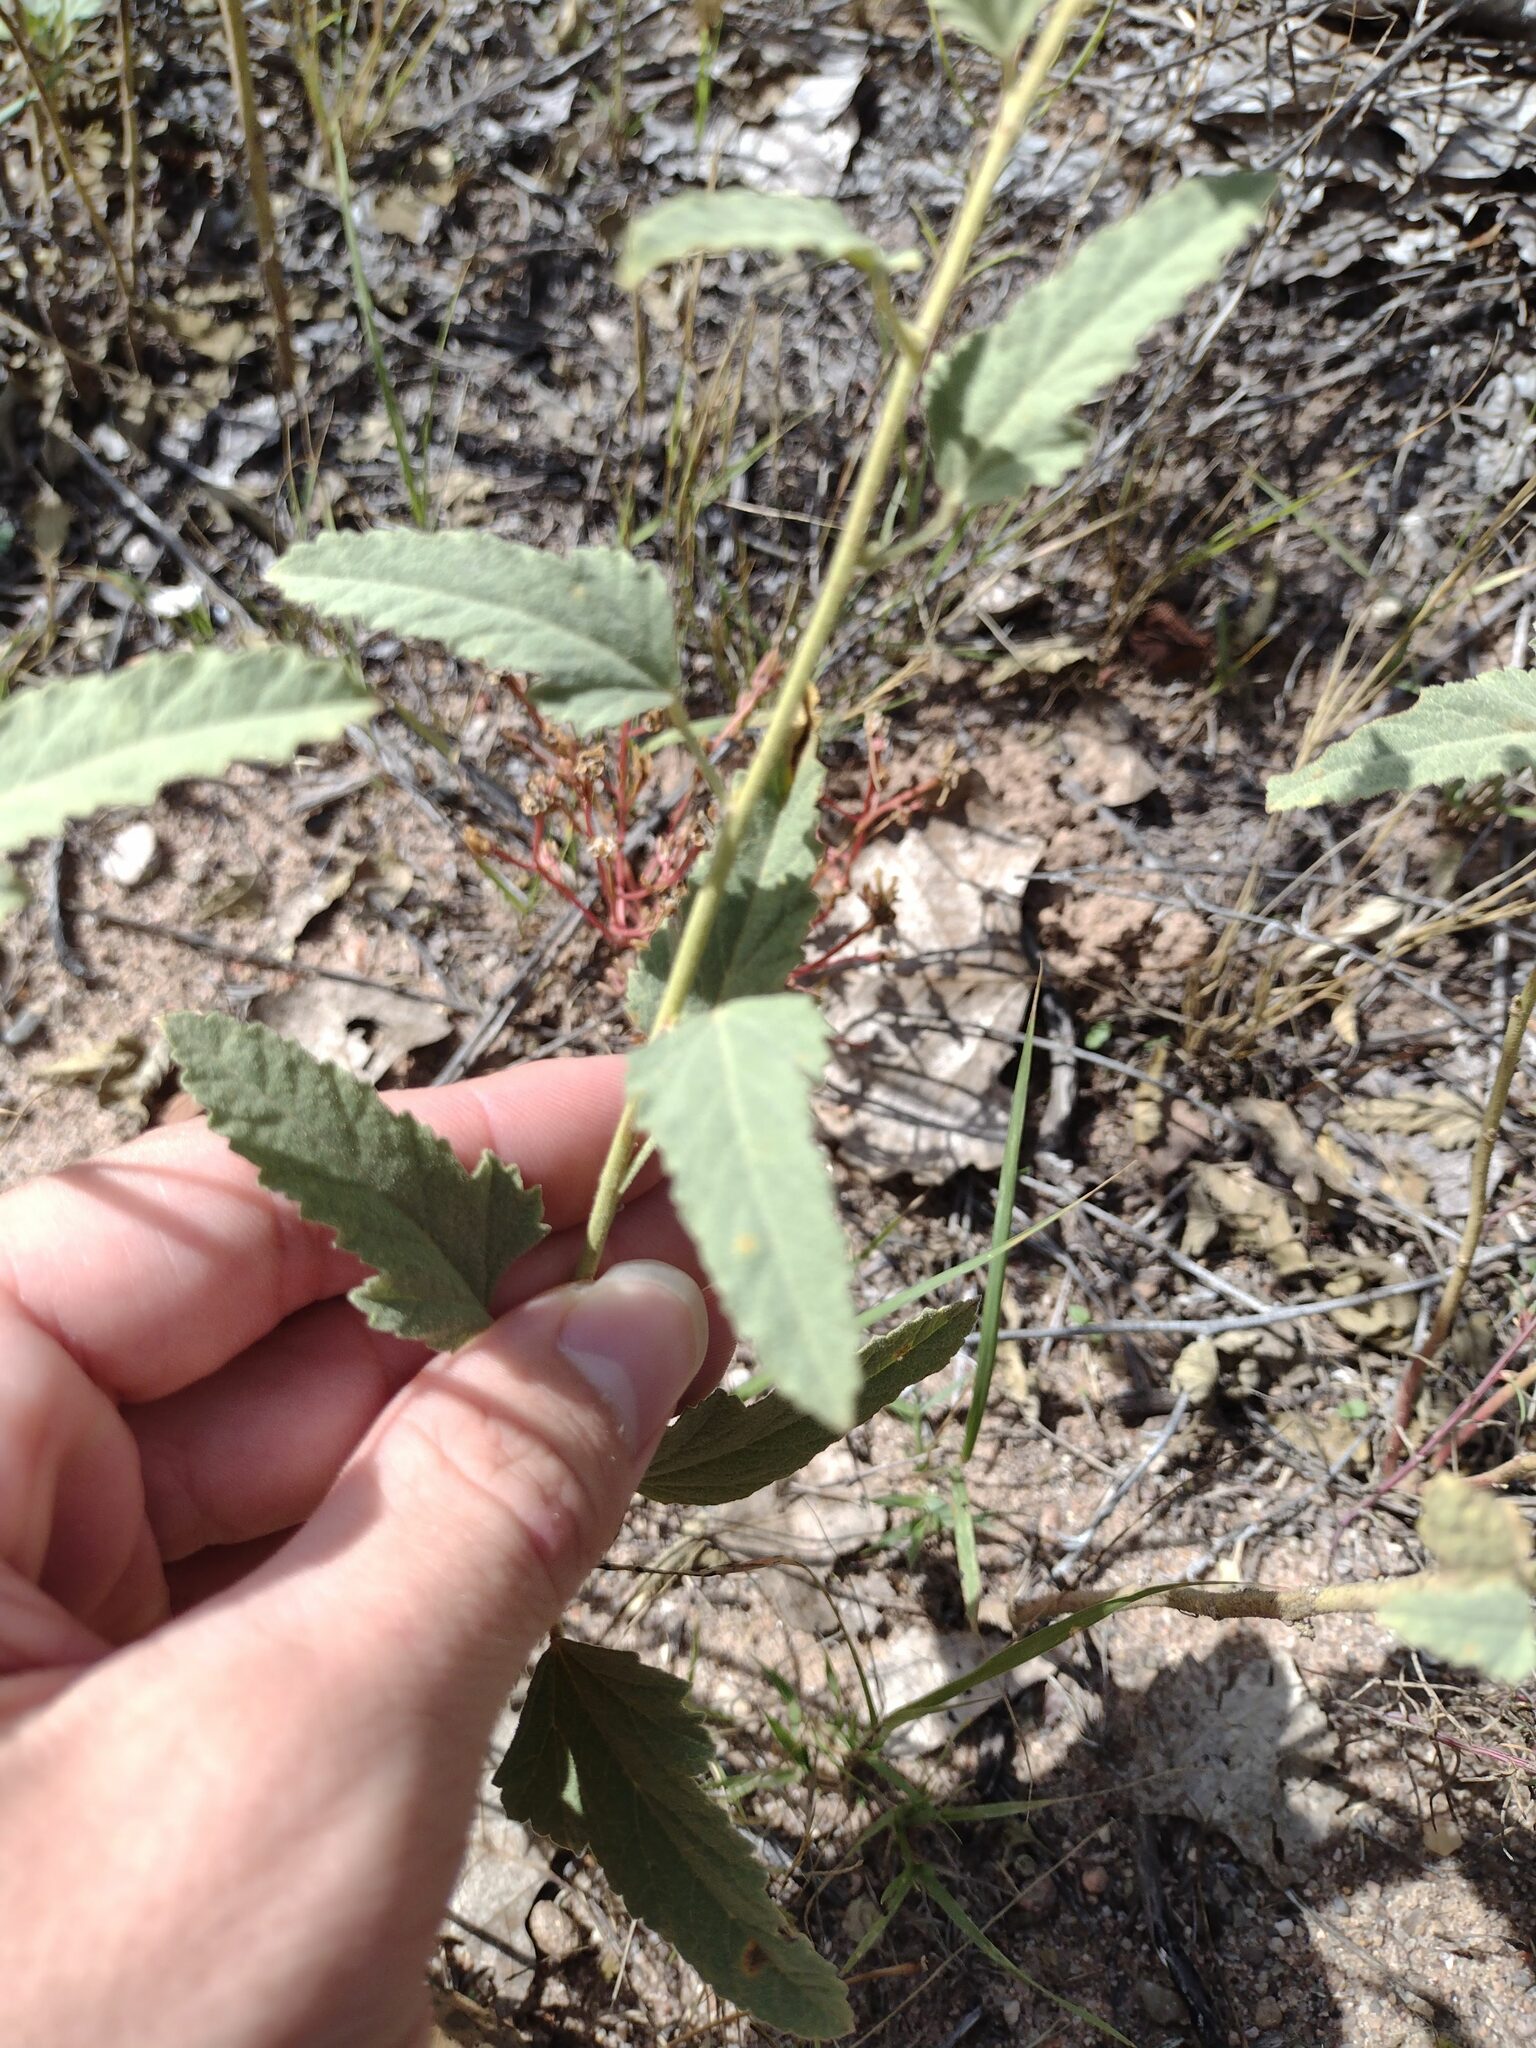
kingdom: Plantae
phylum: Tracheophyta
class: Magnoliopsida
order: Malvales
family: Malvaceae
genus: Sphaeralcea
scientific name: Sphaeralcea incana
